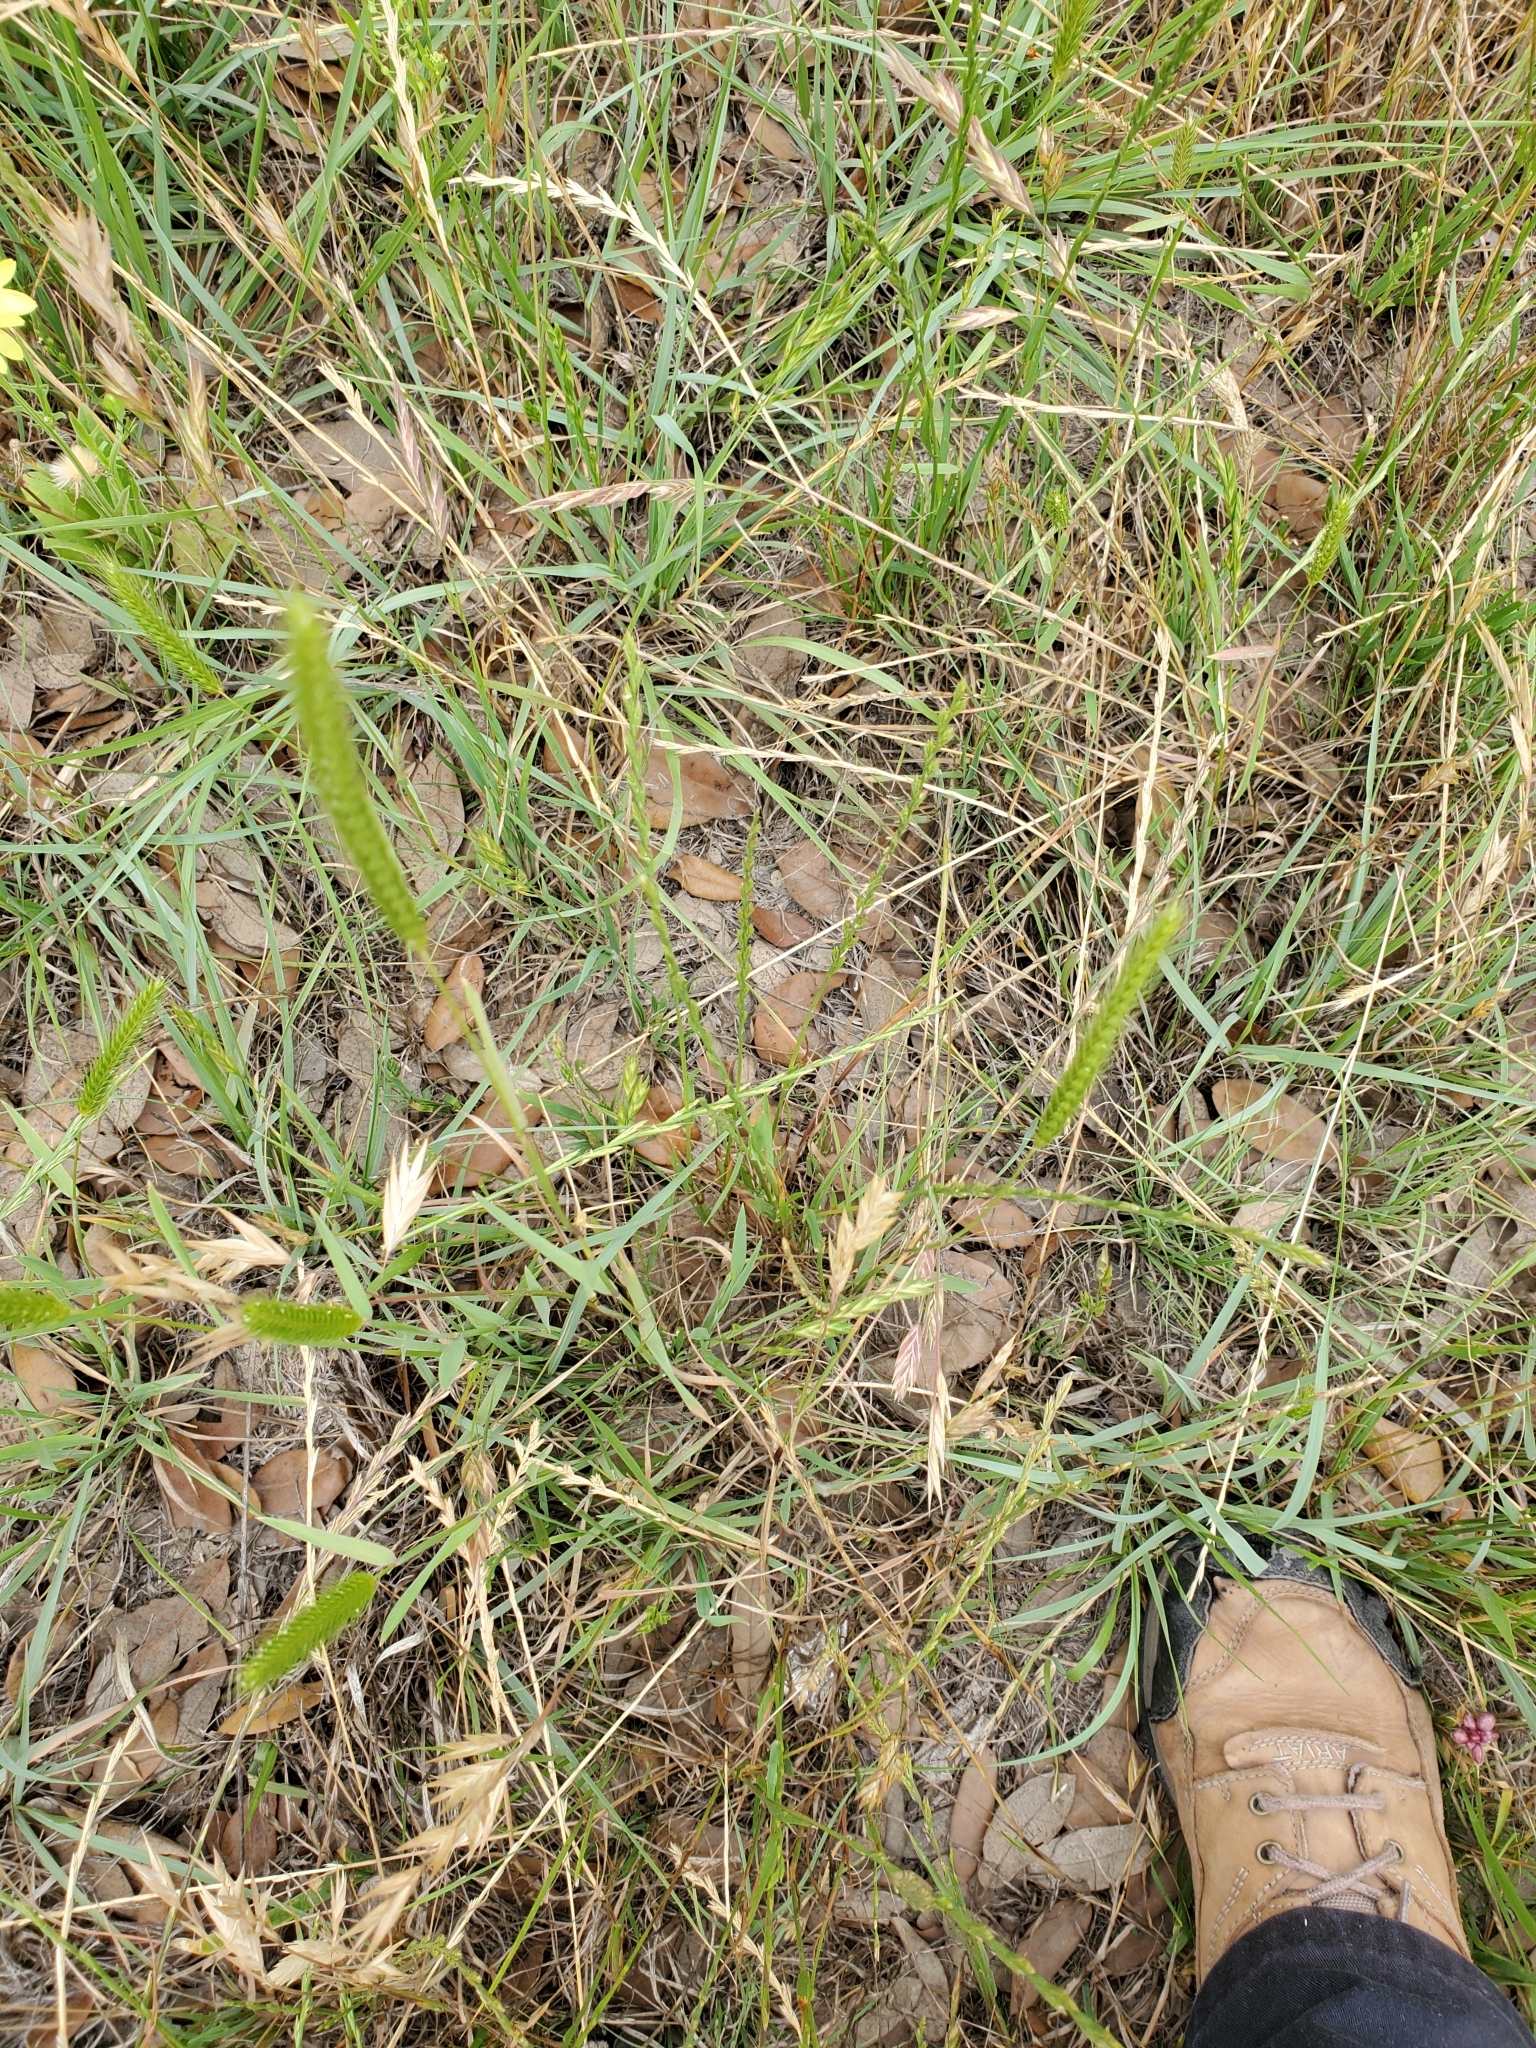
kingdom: Plantae
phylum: Tracheophyta
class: Liliopsida
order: Poales
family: Poaceae
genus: Hordeum
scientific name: Hordeum pusillum
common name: Little barley
